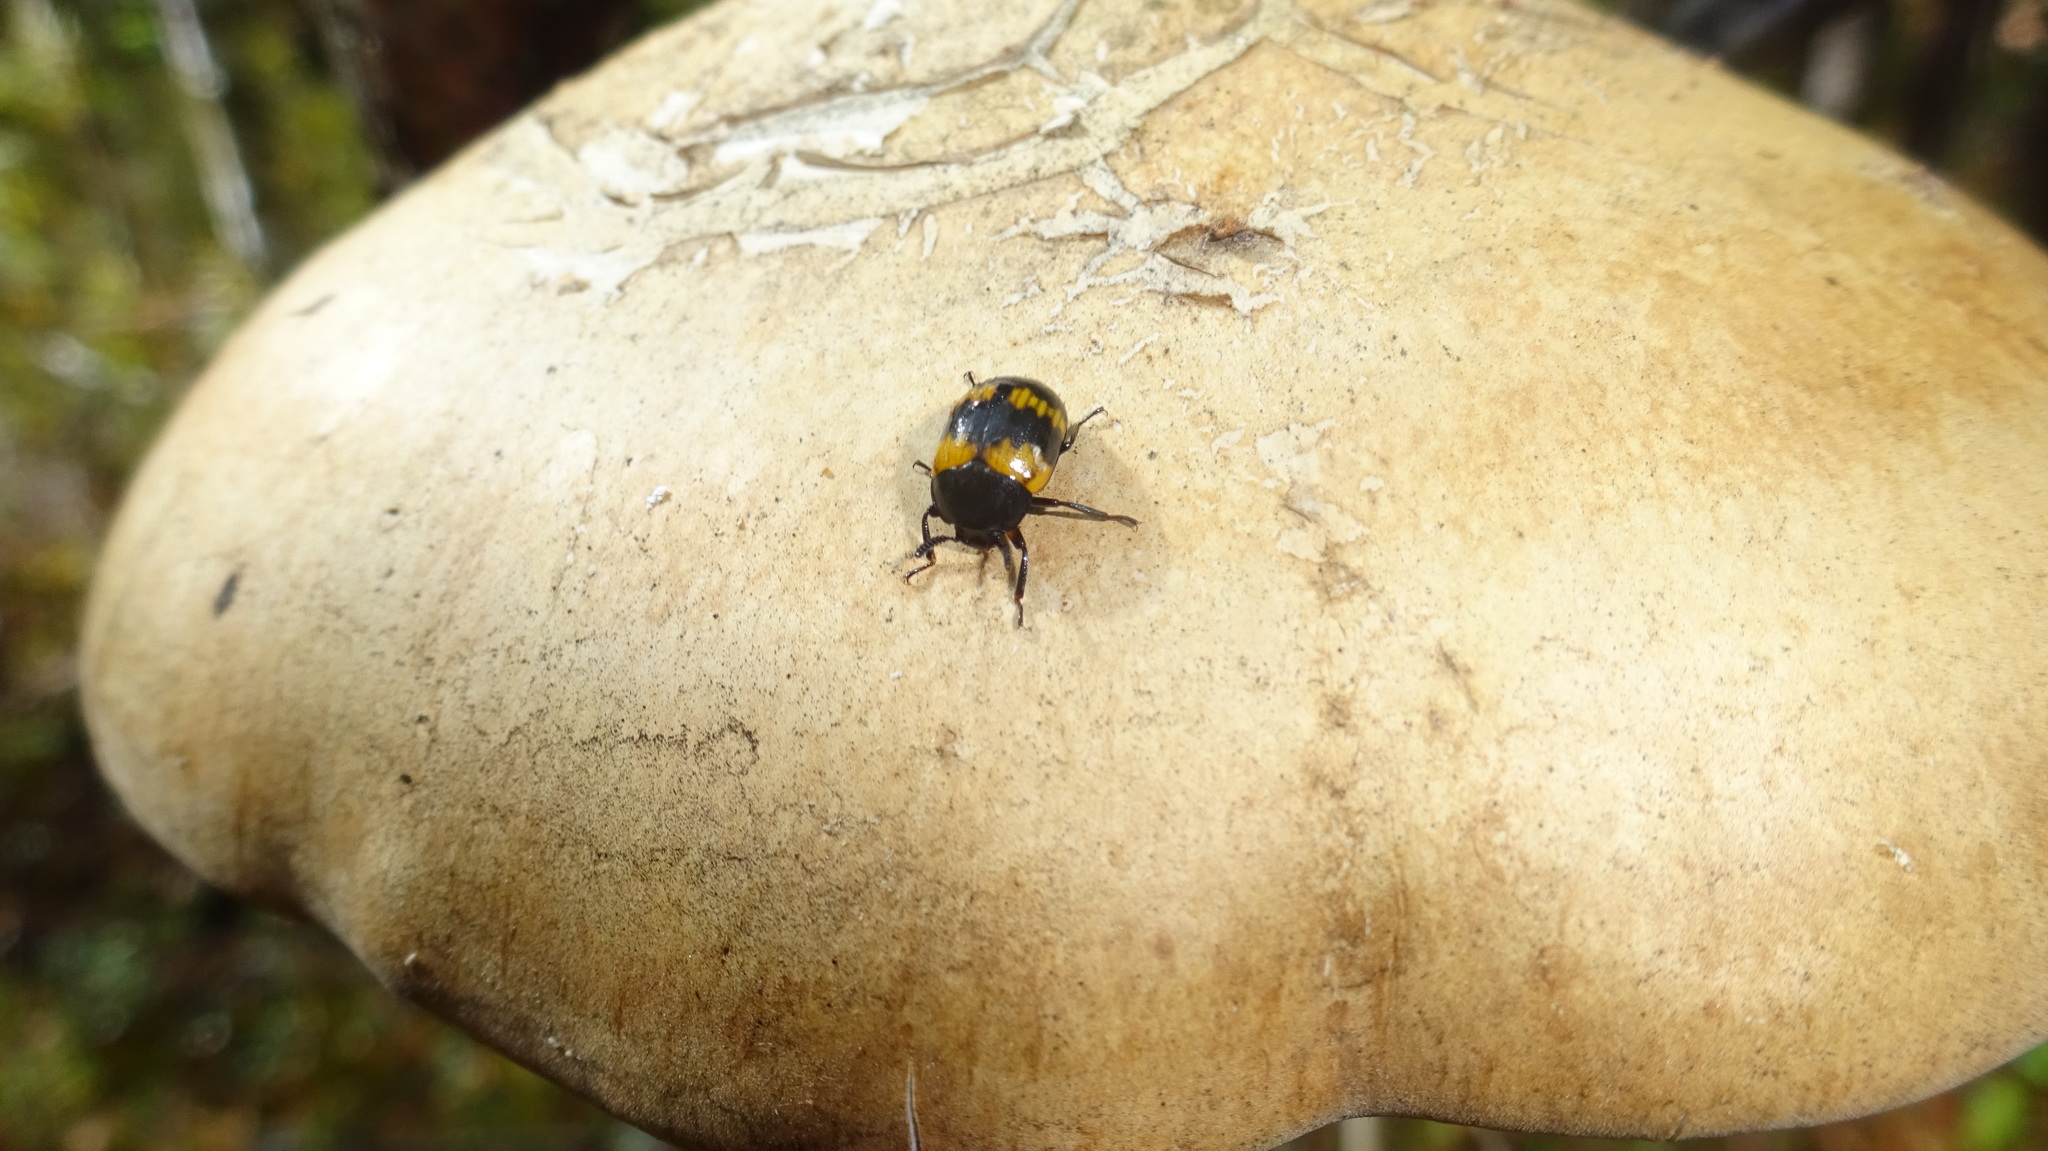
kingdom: Animalia
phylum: Arthropoda
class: Insecta
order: Coleoptera
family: Tenebrionidae
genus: Diaperis
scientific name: Diaperis boleti
